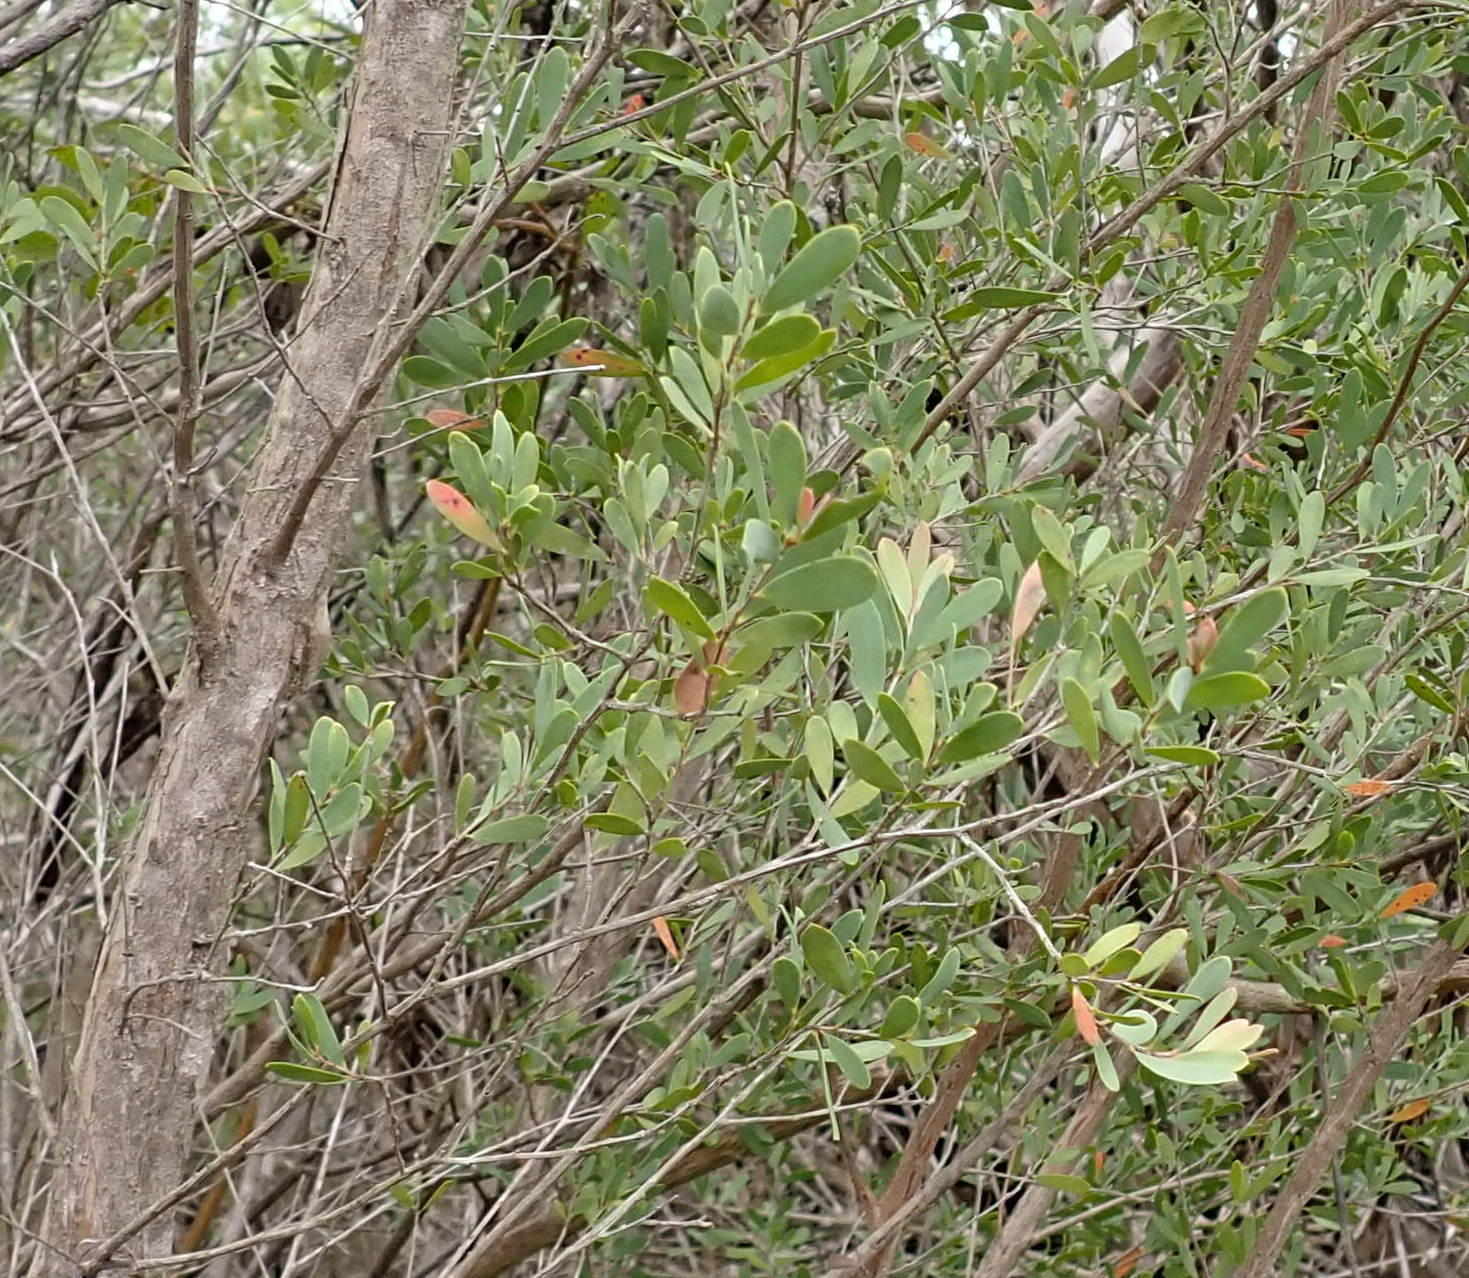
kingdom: Plantae
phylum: Tracheophyta
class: Magnoliopsida
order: Myrtales
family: Myrtaceae
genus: Leptospermum
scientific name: Leptospermum laevigatum
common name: Australian teatree
